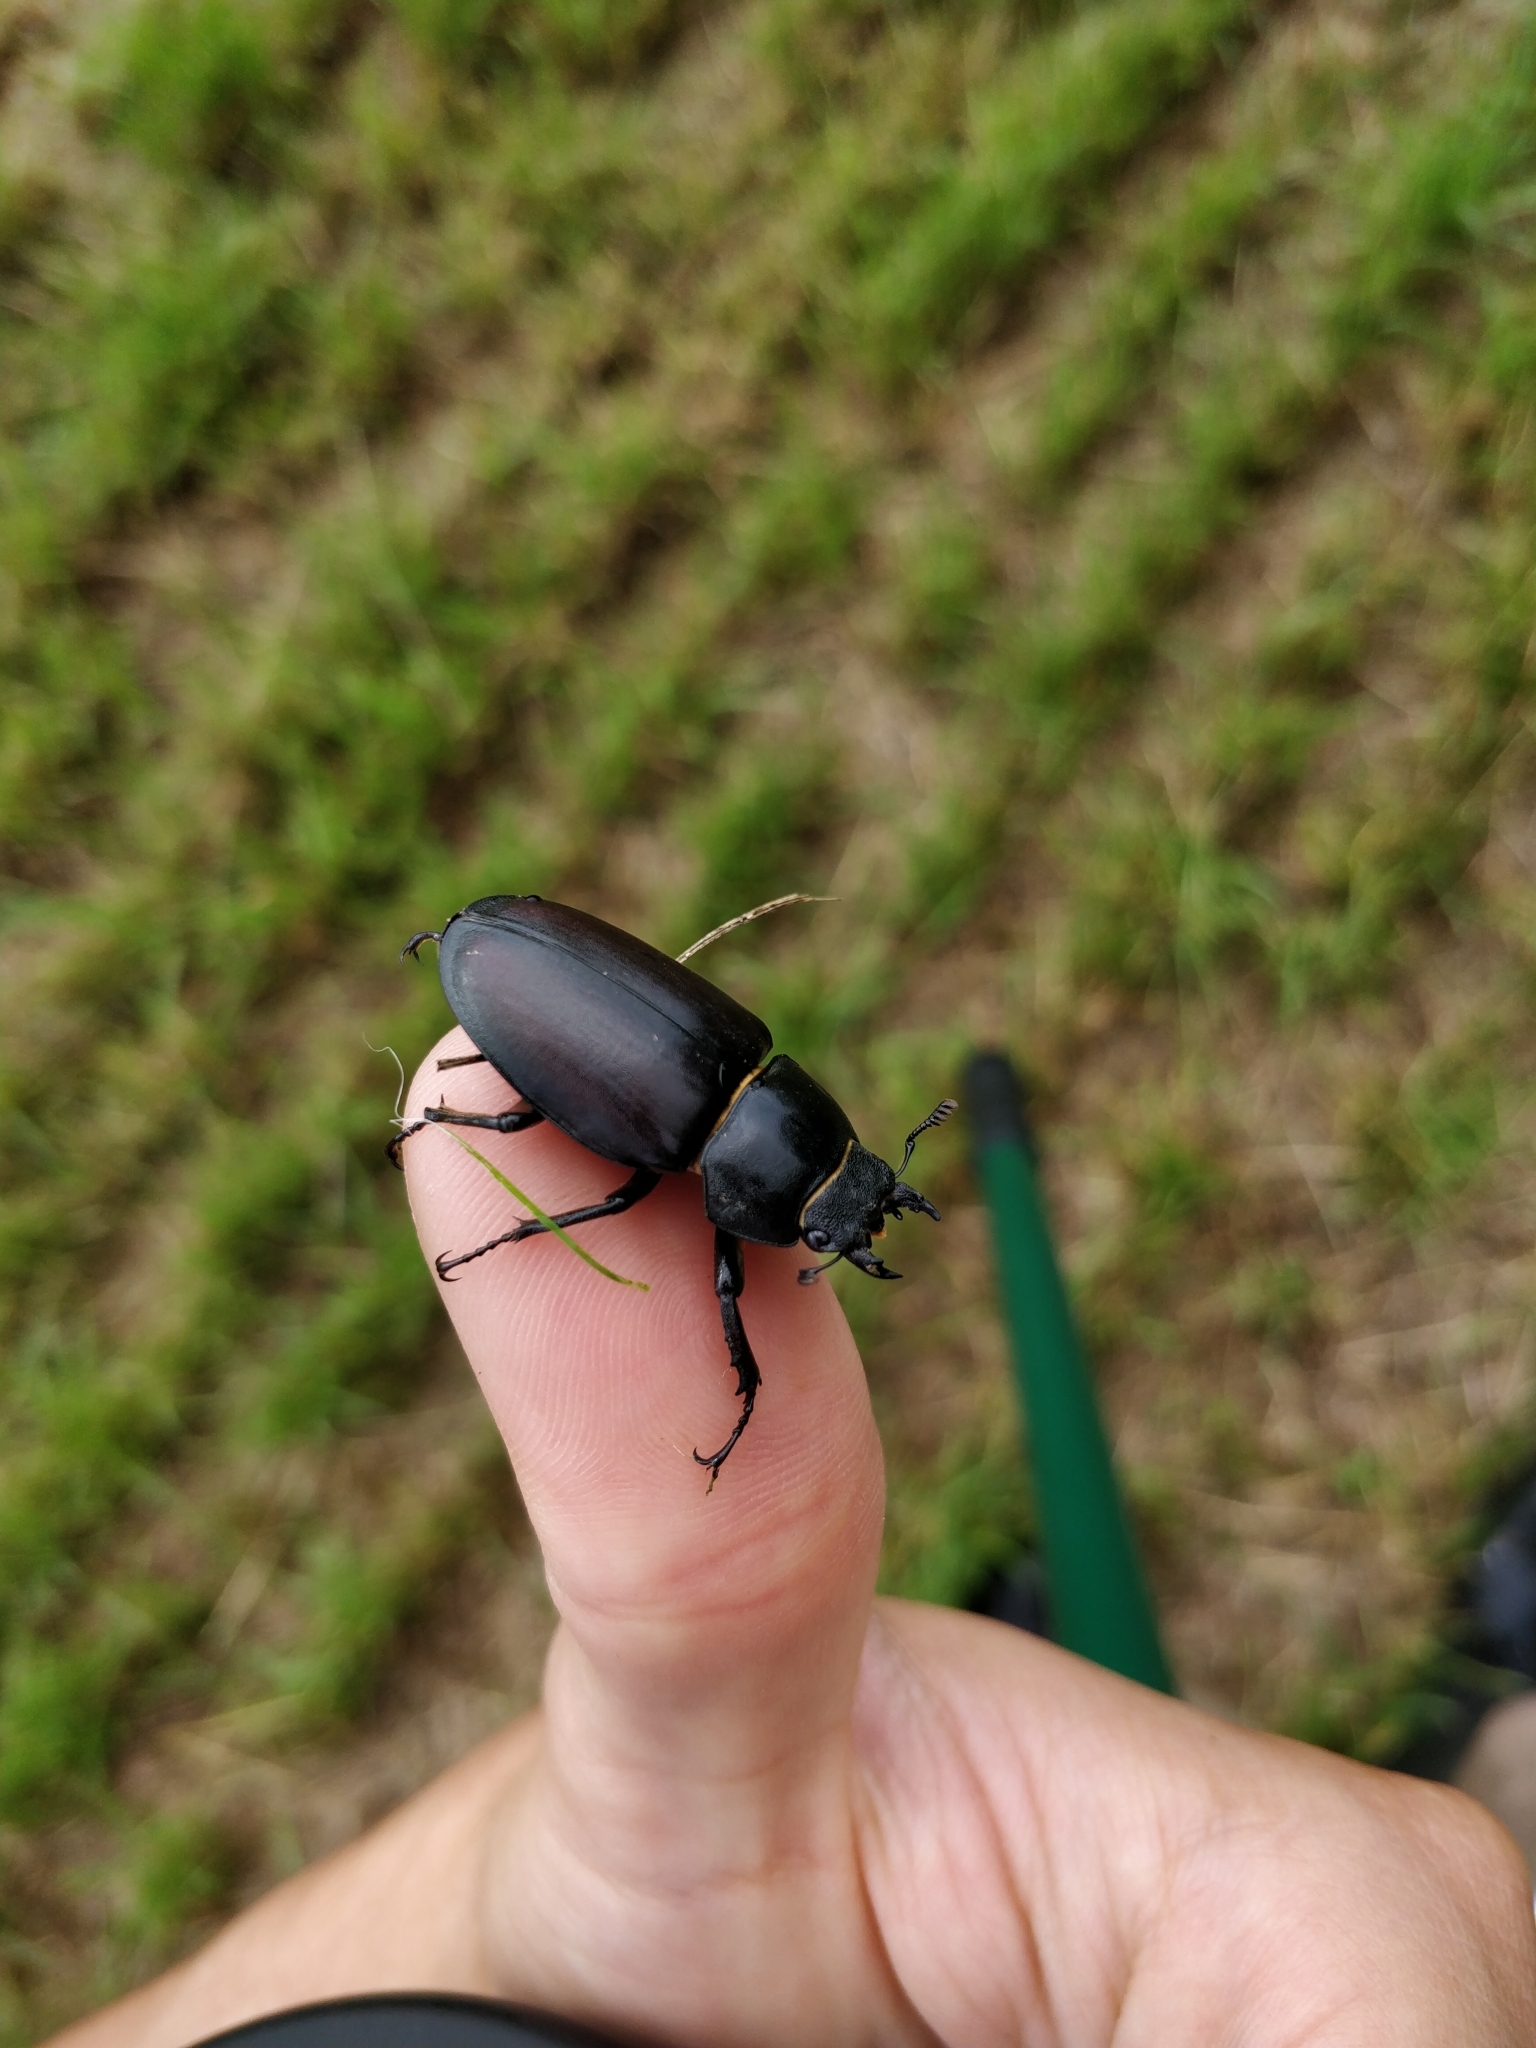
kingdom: Animalia
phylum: Arthropoda
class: Insecta
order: Coleoptera
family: Lucanidae
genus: Lucanus
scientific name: Lucanus cervus
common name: Stag beetle
